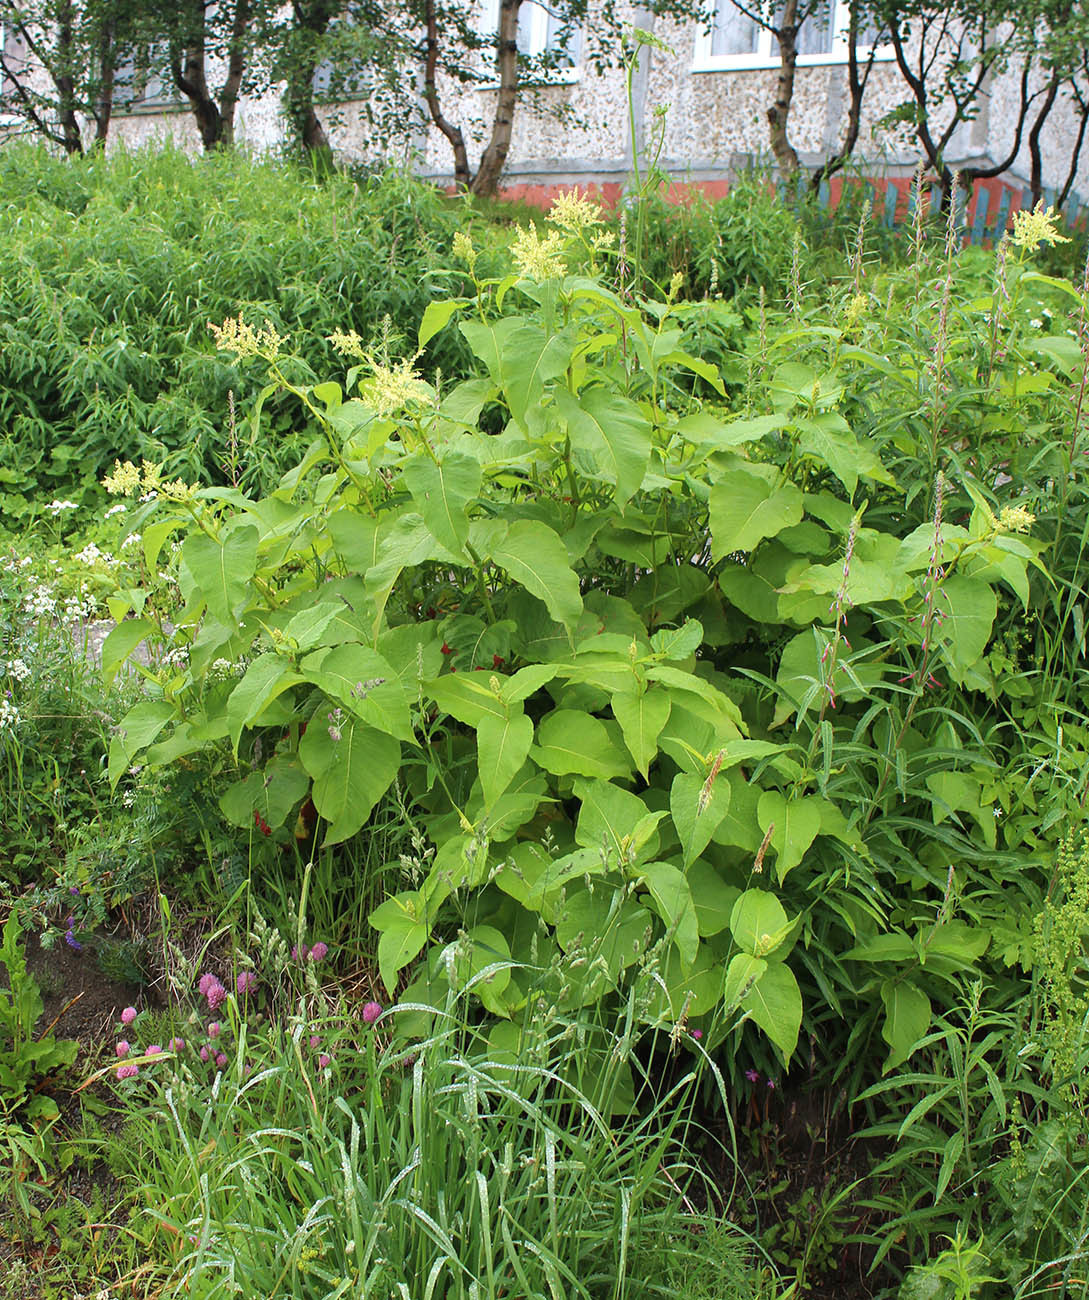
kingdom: Plantae
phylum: Tracheophyta
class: Magnoliopsida
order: Caryophyllales
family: Polygonaceae
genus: Koenigia
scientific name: Koenigia weyrichii
